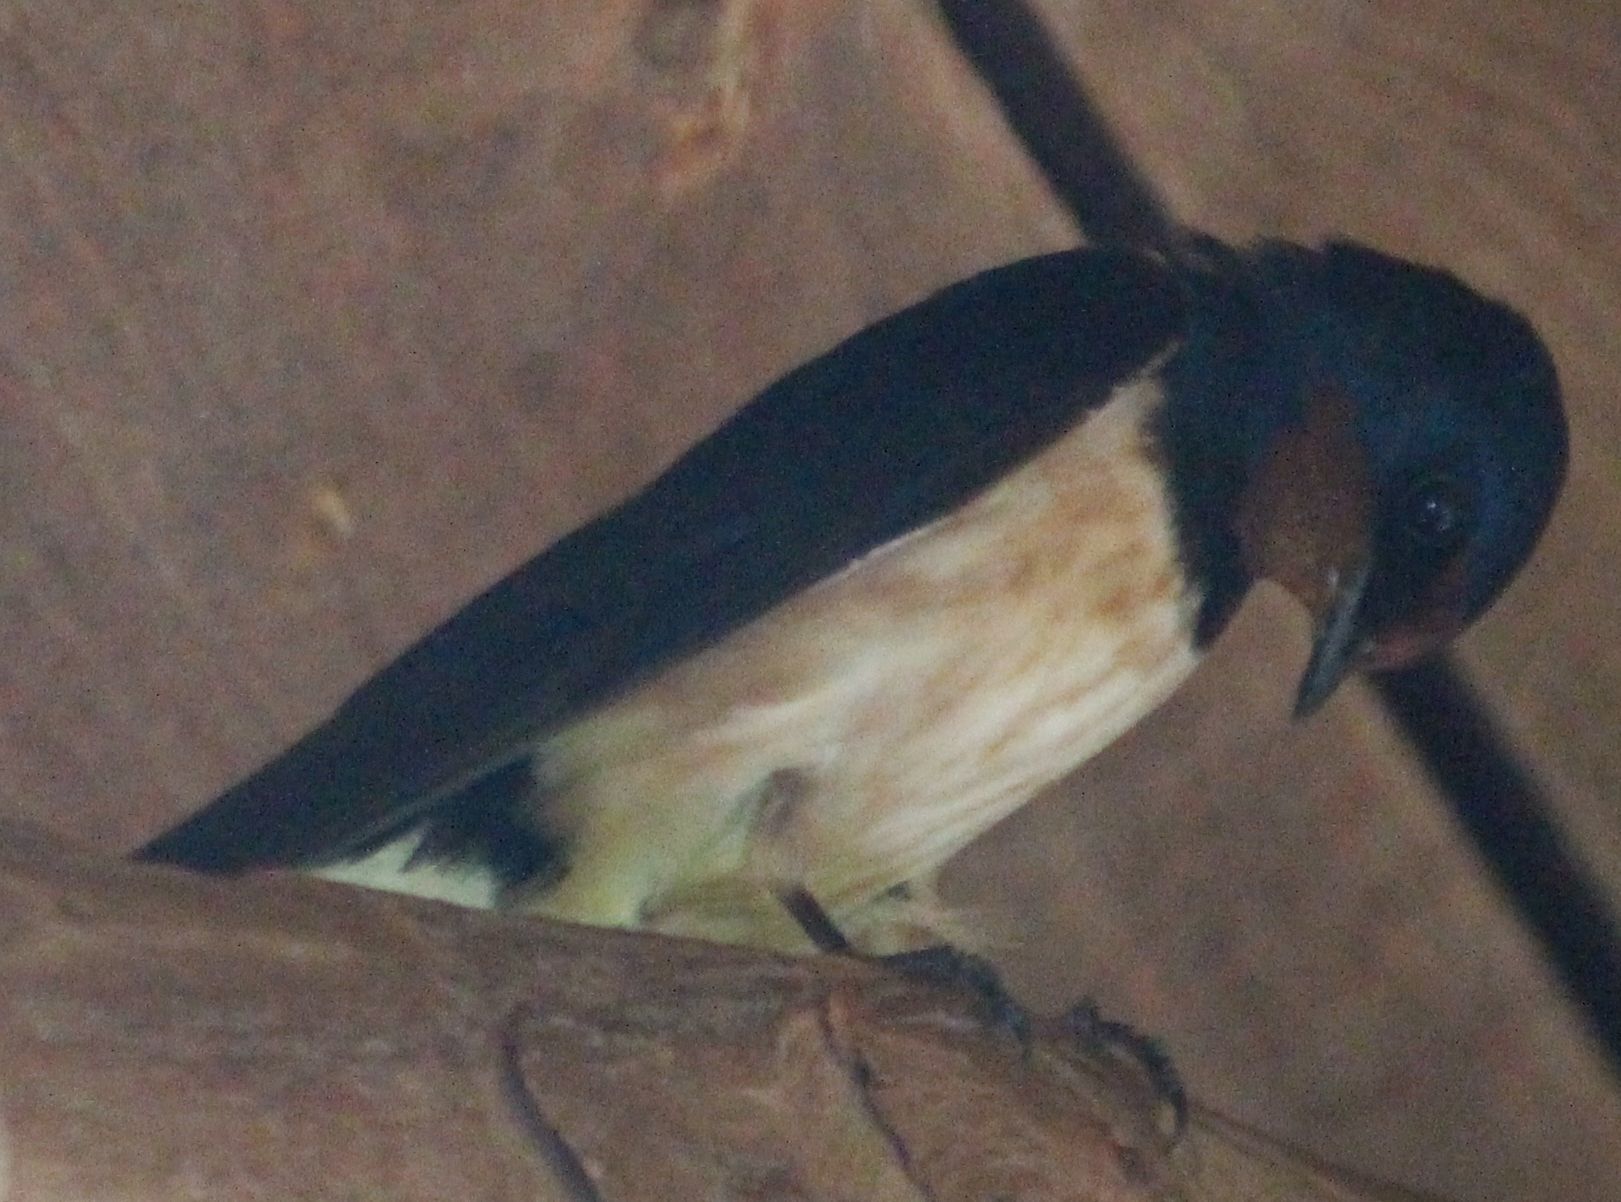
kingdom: Animalia
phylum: Chordata
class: Aves
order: Passeriformes
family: Hirundinidae
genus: Hirundo
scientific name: Hirundo rustica
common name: Barn swallow
